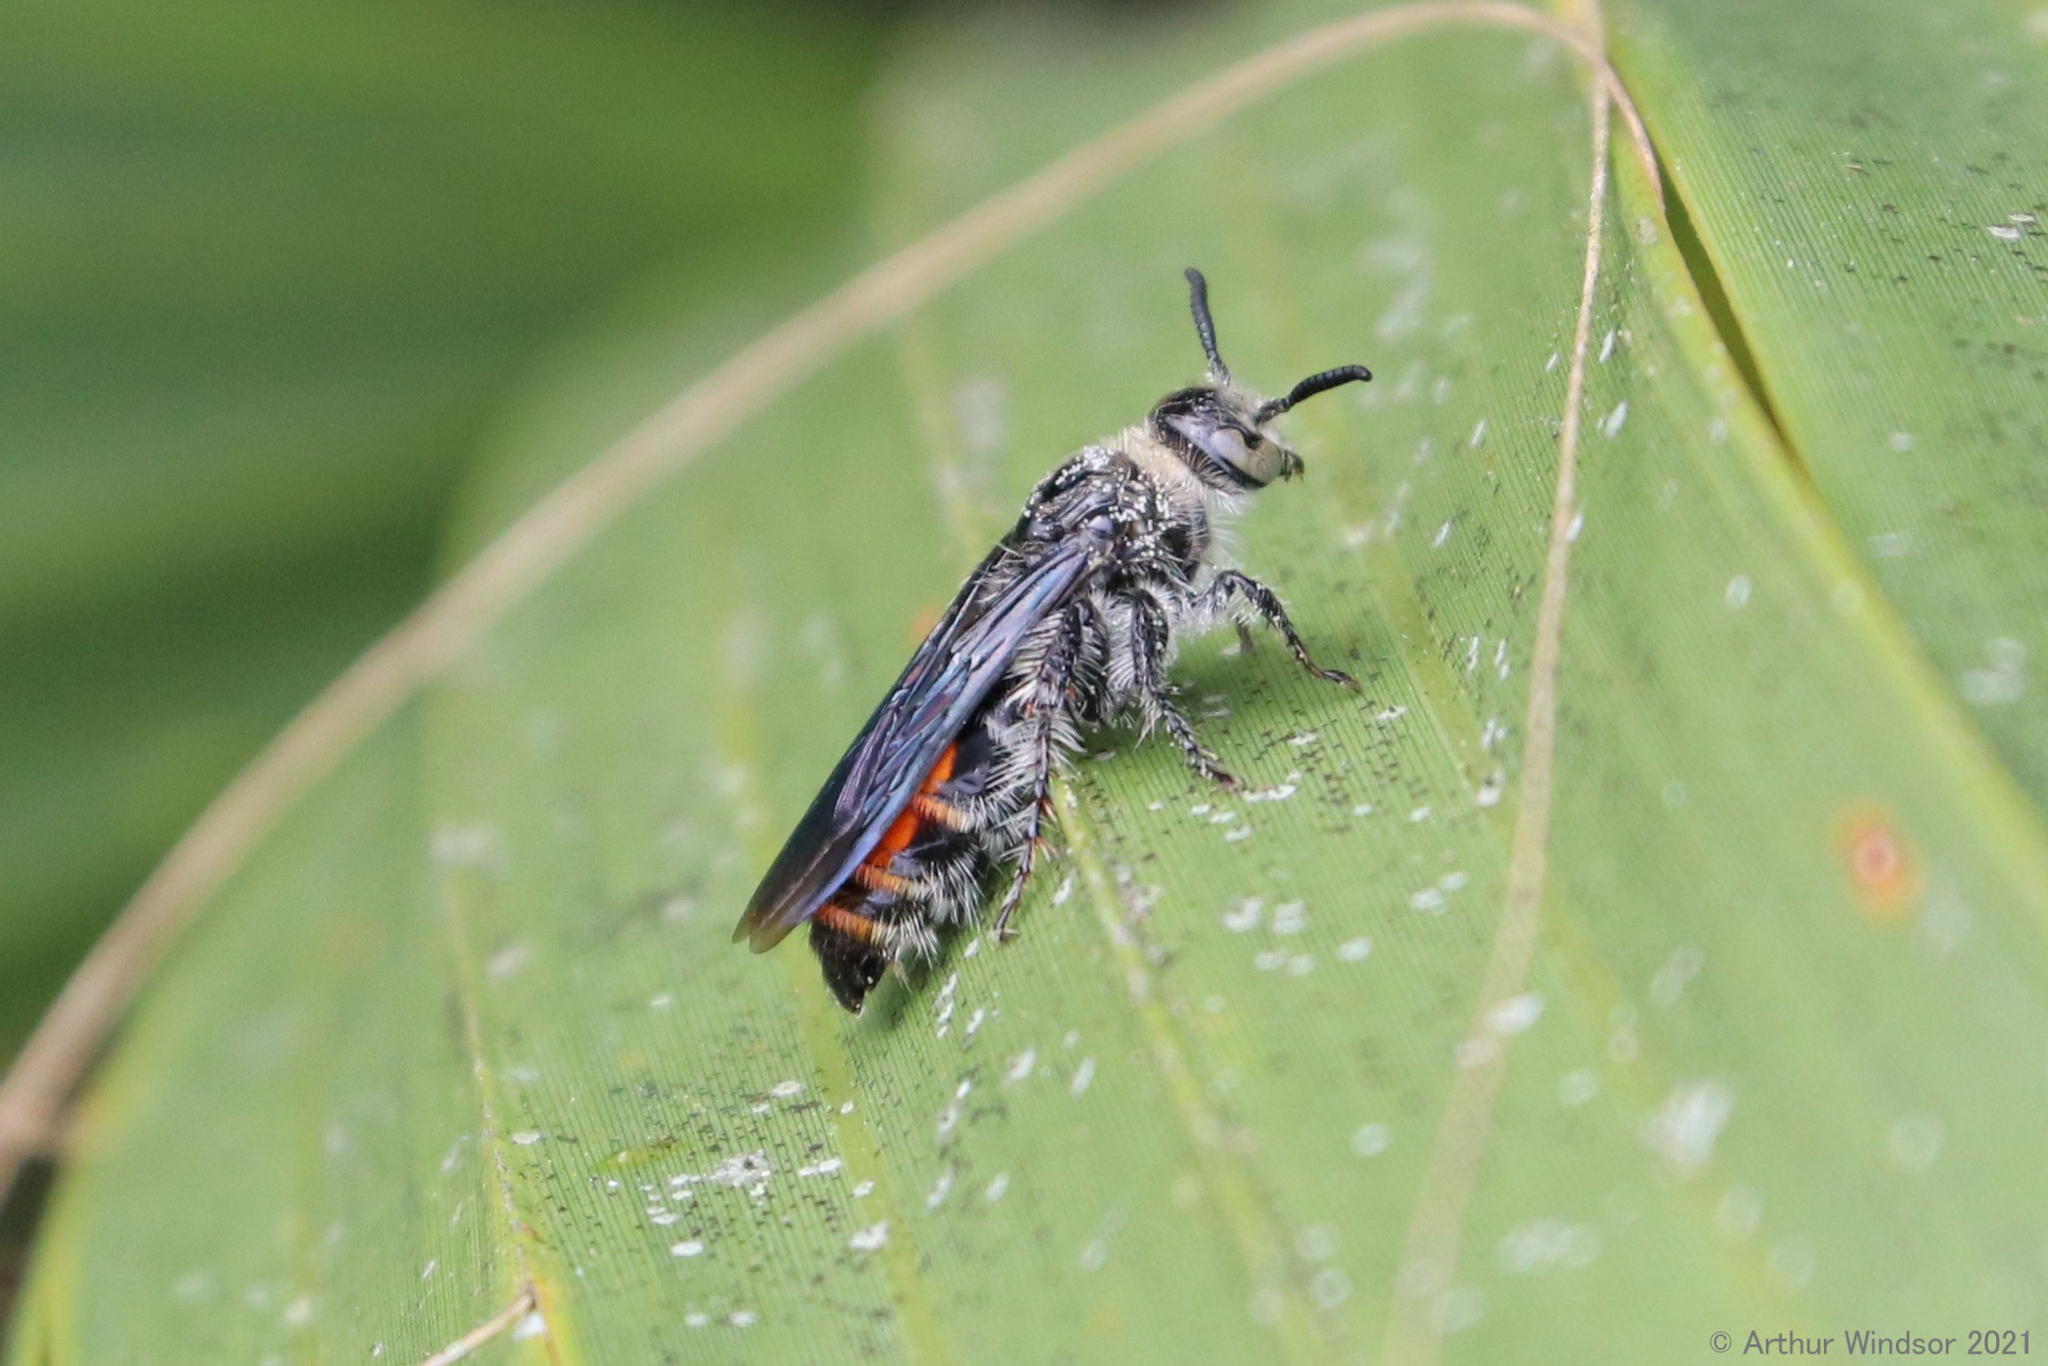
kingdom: Animalia
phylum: Arthropoda
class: Insecta
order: Hymenoptera
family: Scoliidae
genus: Dielis
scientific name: Dielis dorsata
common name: Scoliid wasp
